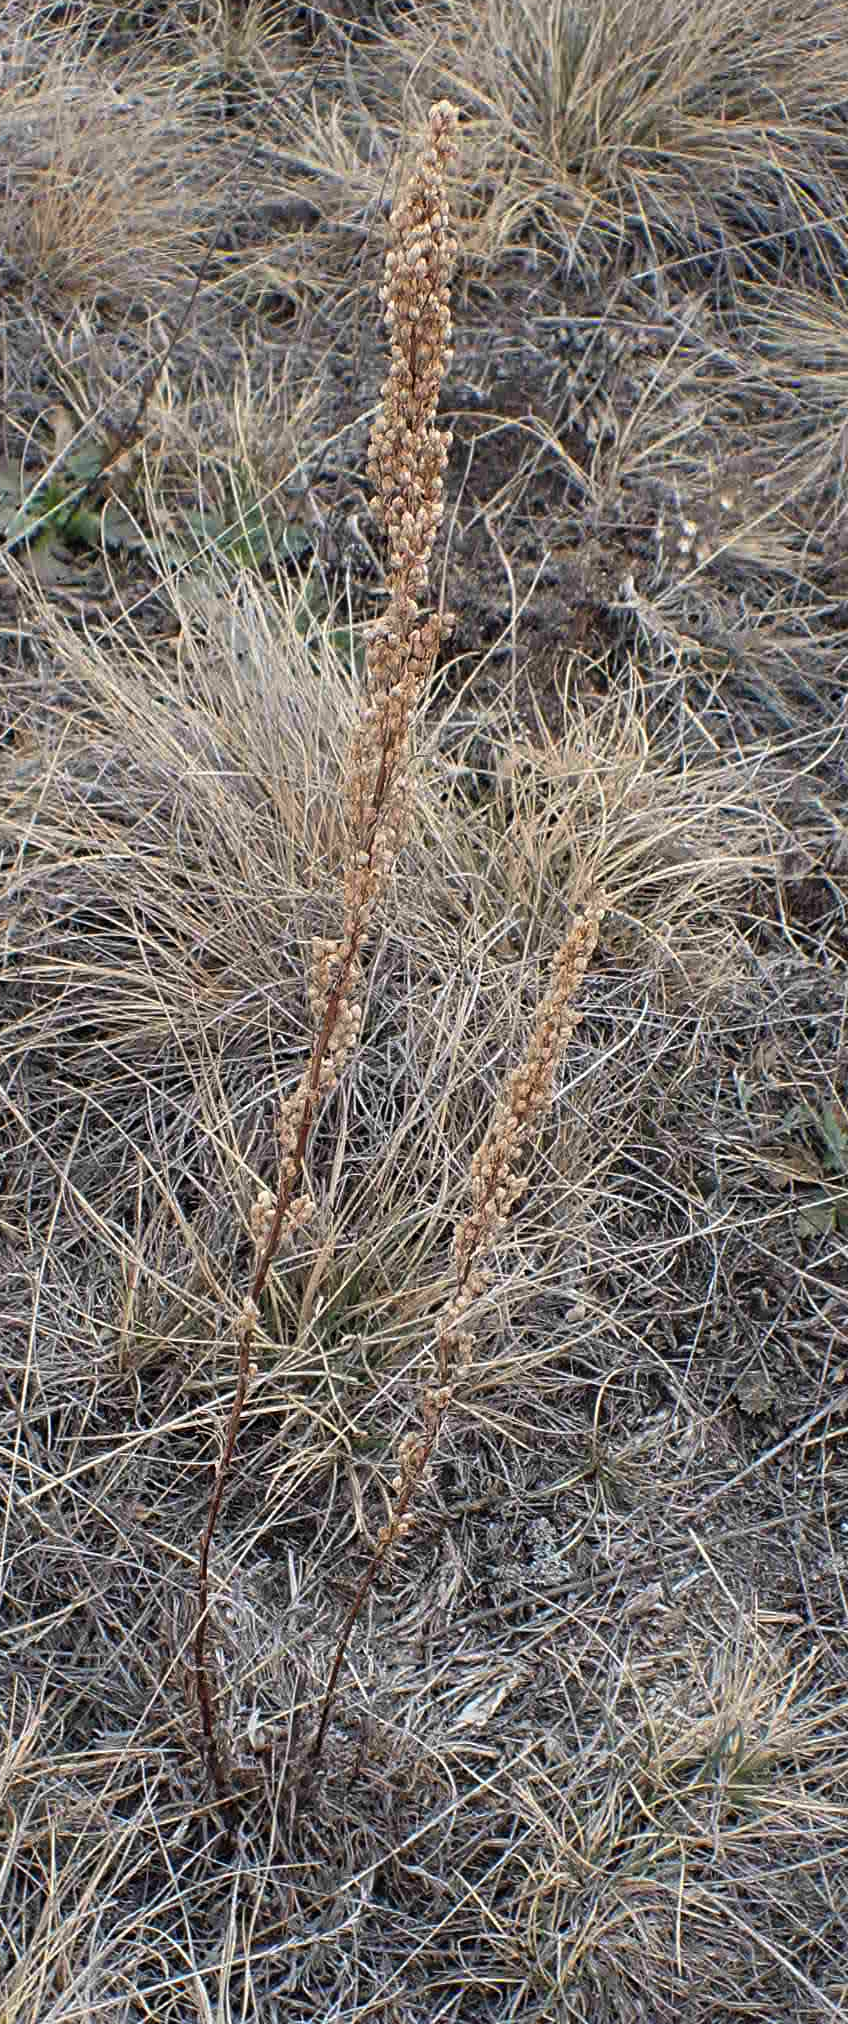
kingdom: Plantae
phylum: Tracheophyta
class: Magnoliopsida
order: Asterales
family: Asteraceae
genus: Artemisia
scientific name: Artemisia campestris
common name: Field wormwood
